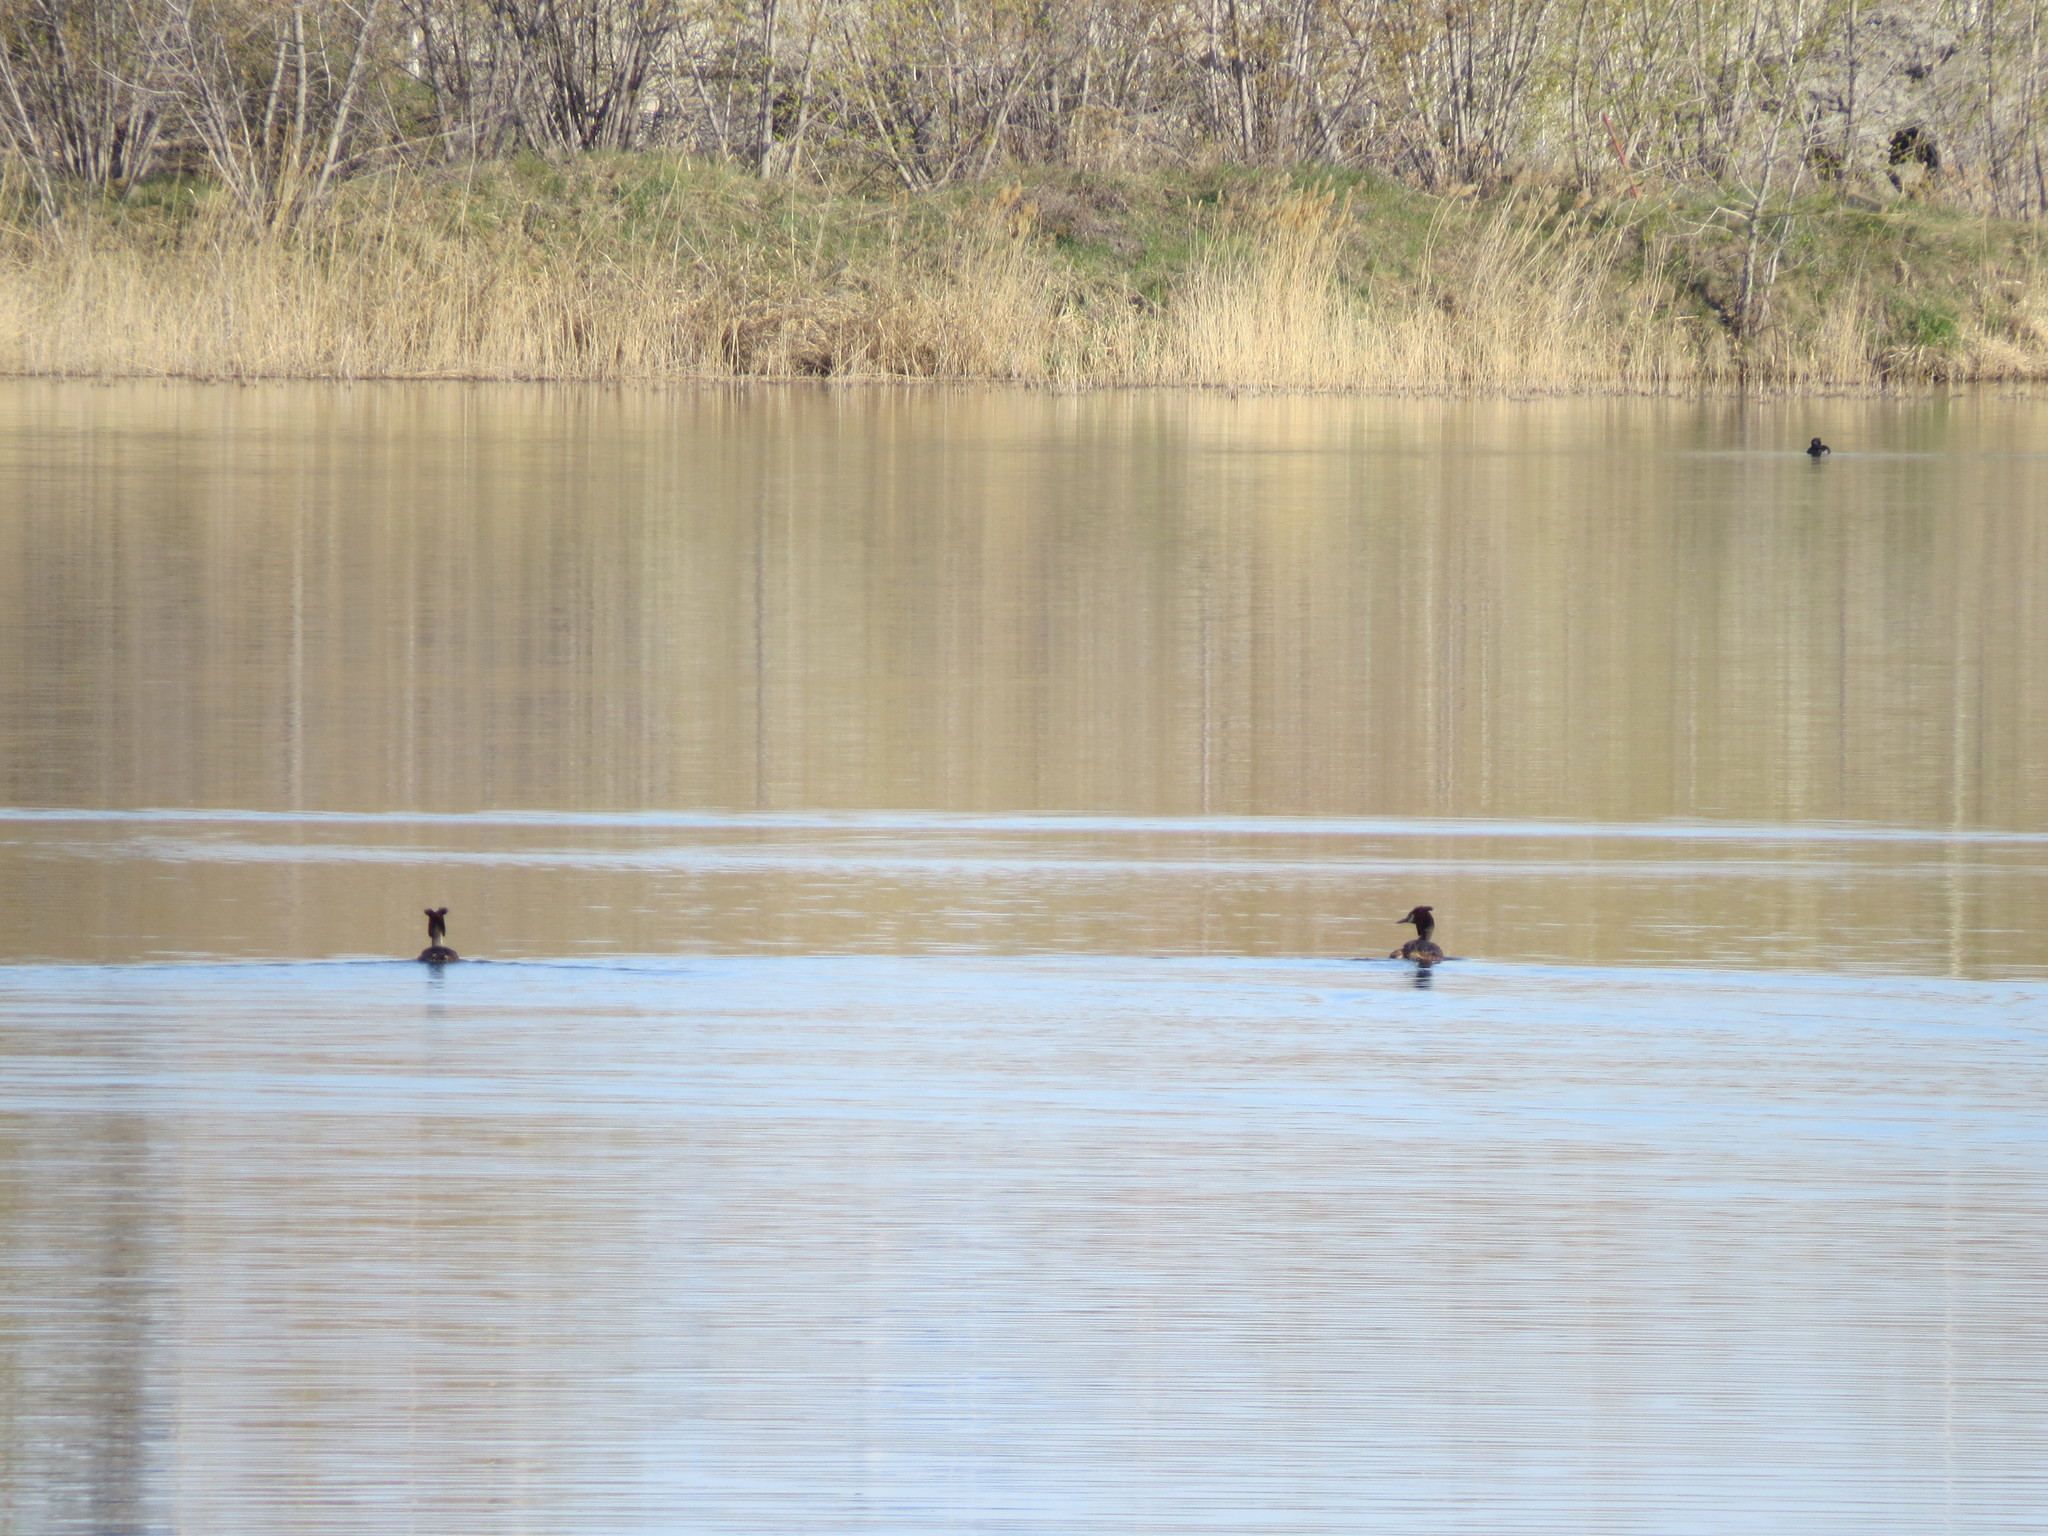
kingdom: Animalia
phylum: Chordata
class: Aves
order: Podicipediformes
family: Podicipedidae
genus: Podiceps
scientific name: Podiceps cristatus
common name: Great crested grebe
